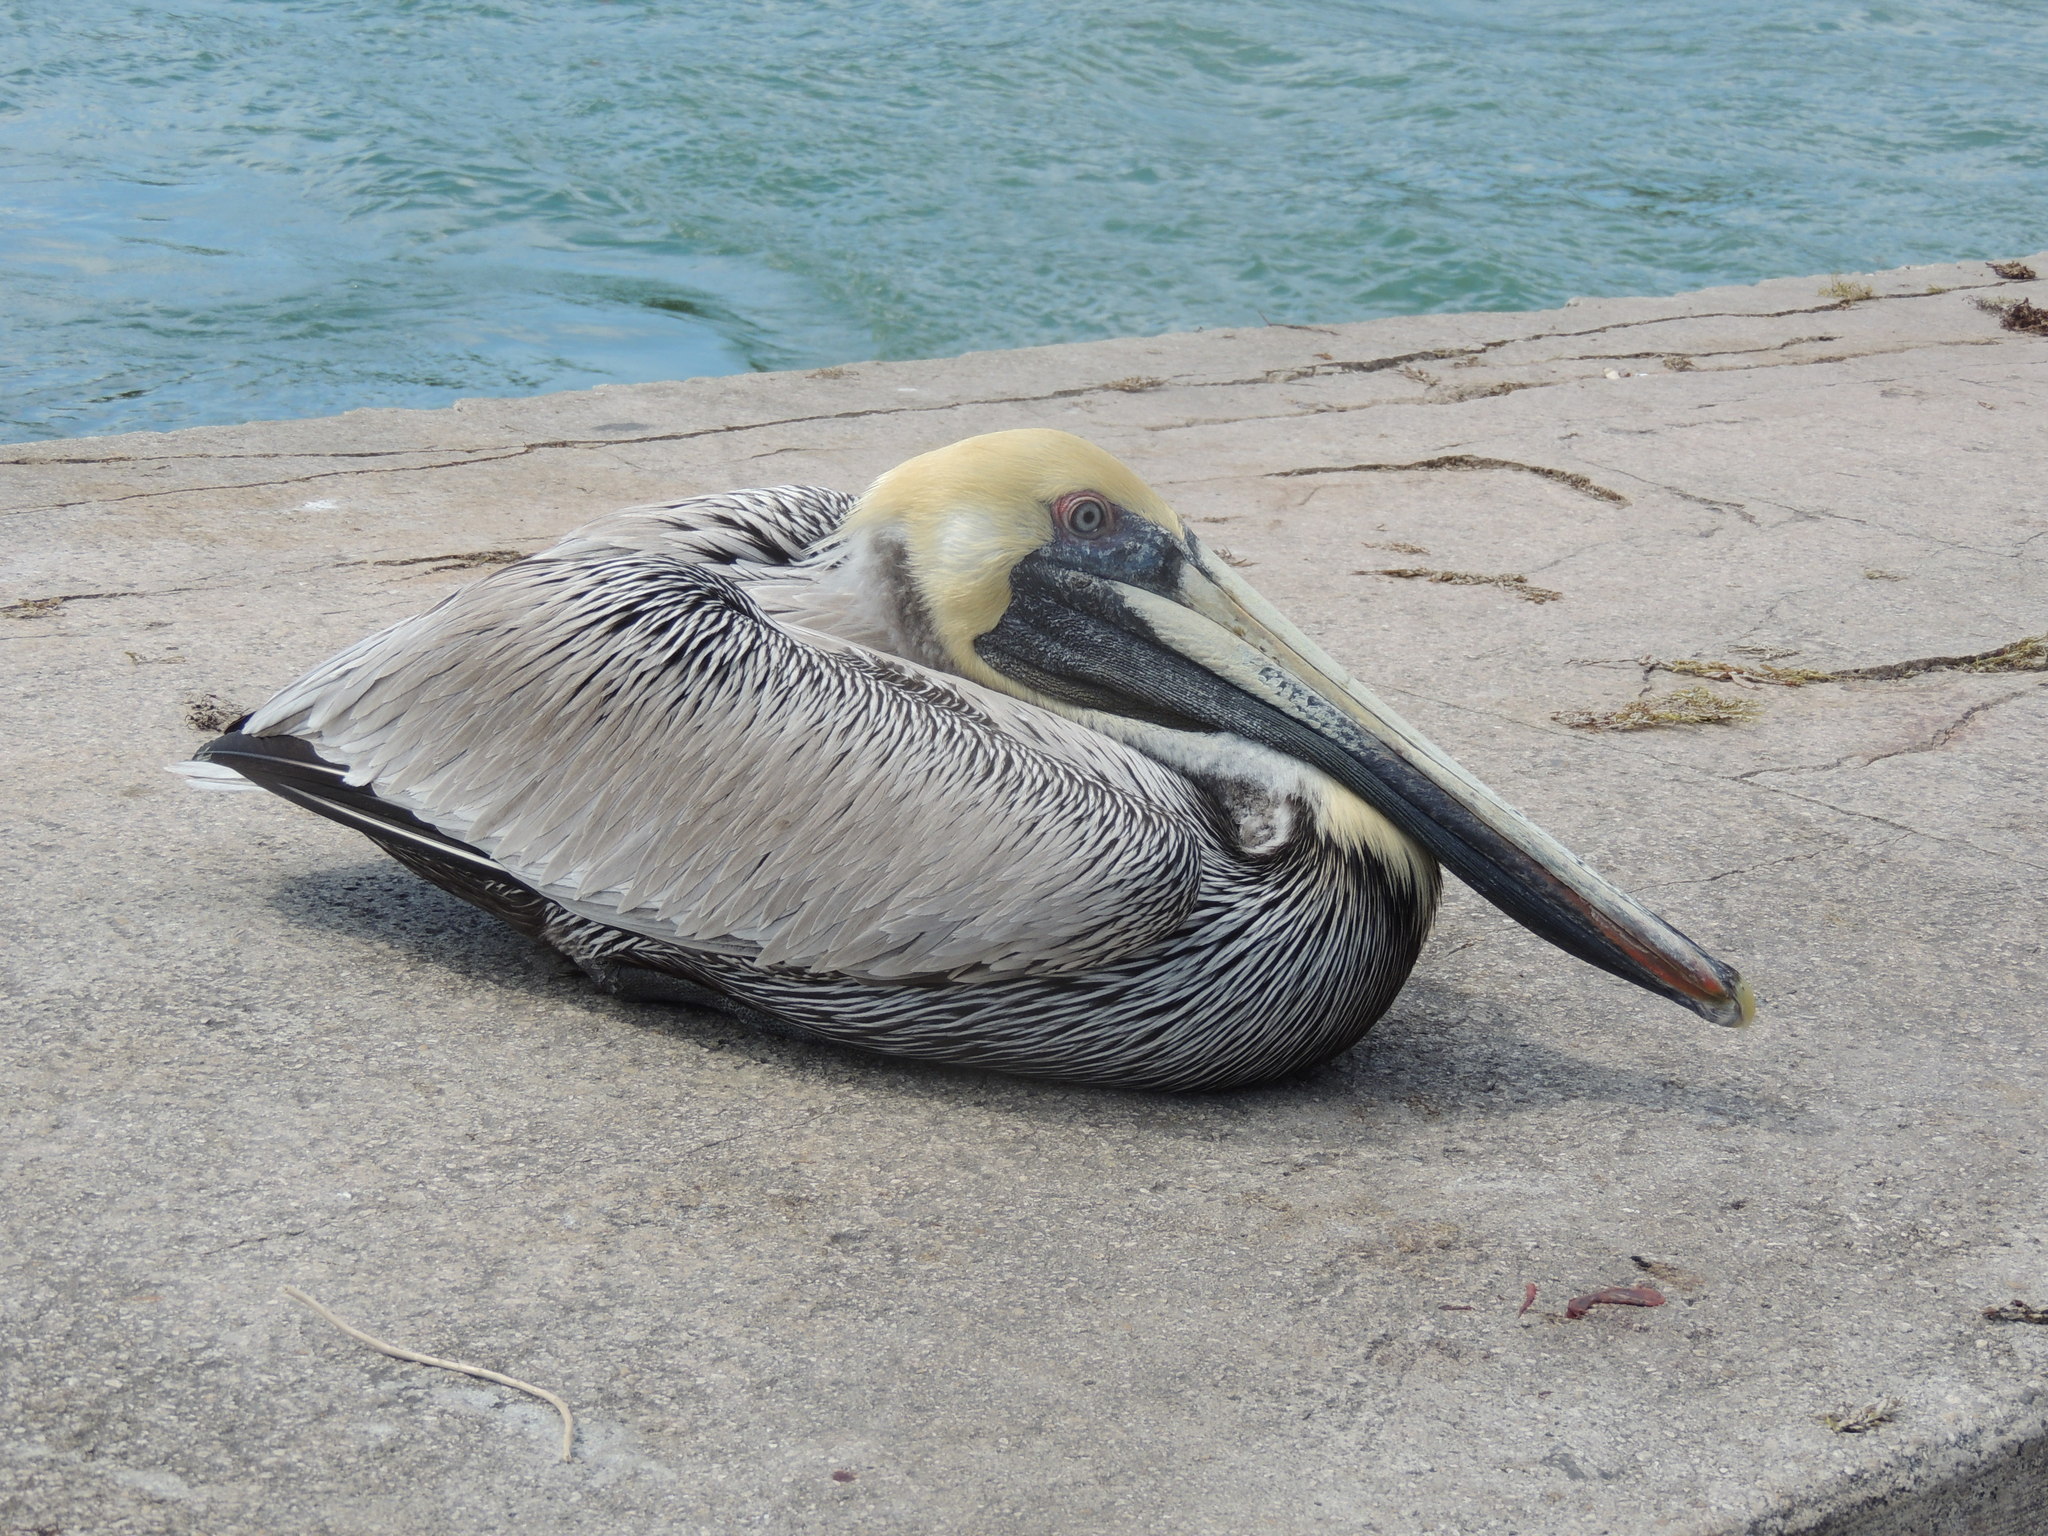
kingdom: Animalia
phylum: Chordata
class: Aves
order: Pelecaniformes
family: Pelecanidae
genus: Pelecanus
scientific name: Pelecanus occidentalis
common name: Brown pelican
